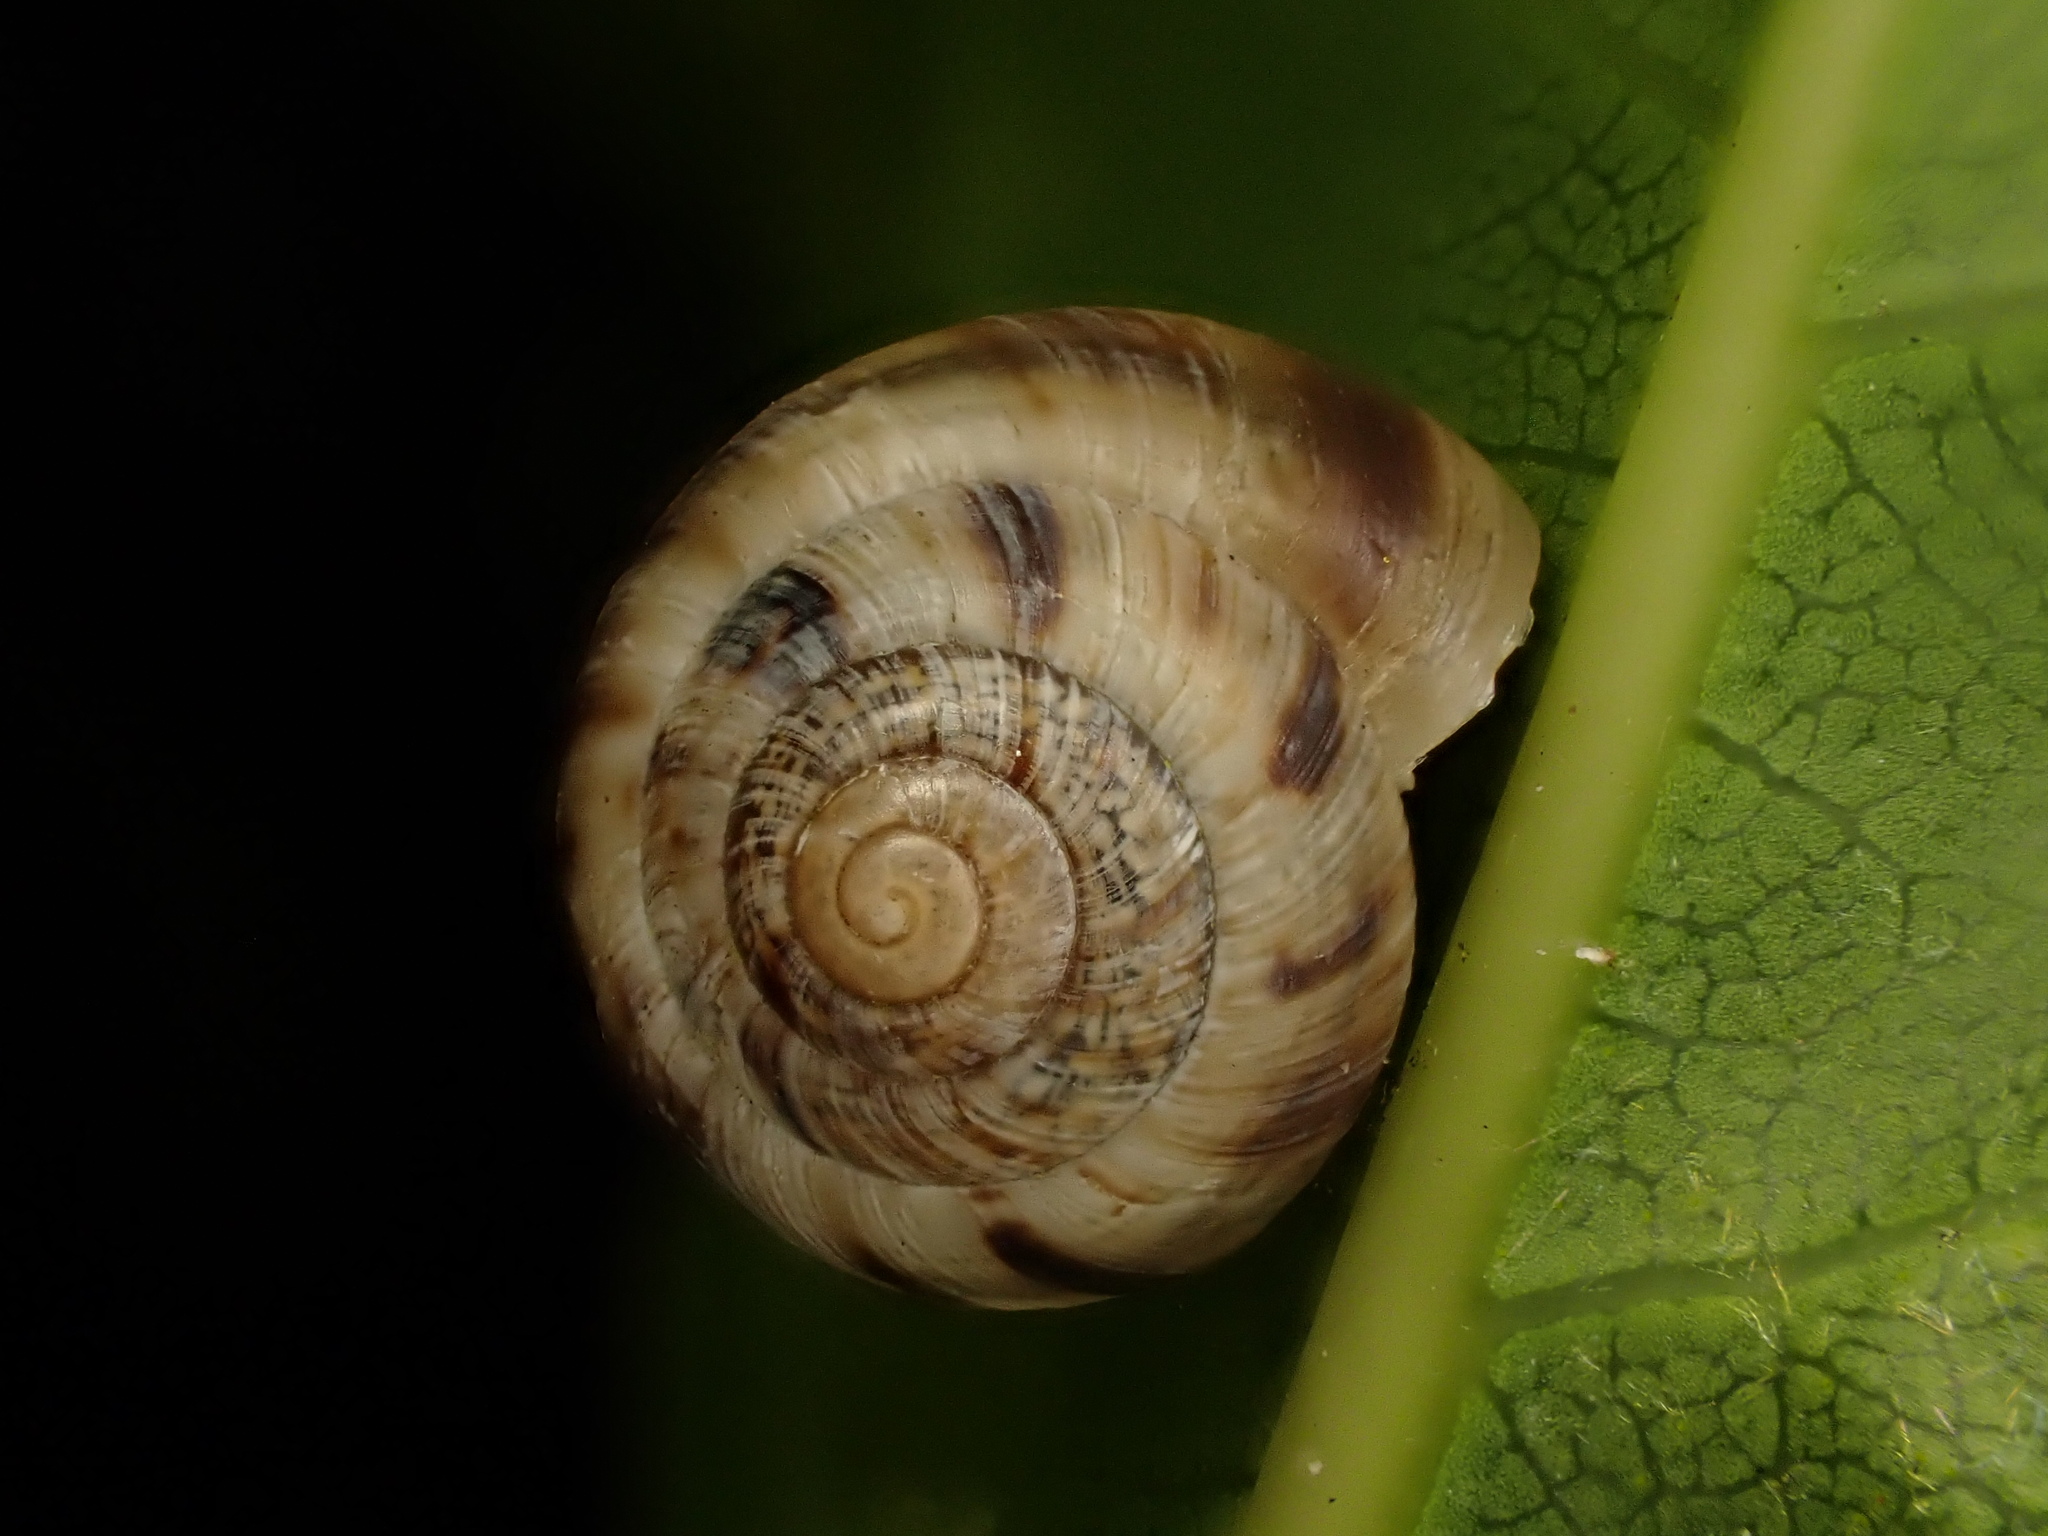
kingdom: Animalia
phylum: Mollusca
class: Gastropoda
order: Stylommatophora
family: Charopidae
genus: Serpho
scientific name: Serpho
